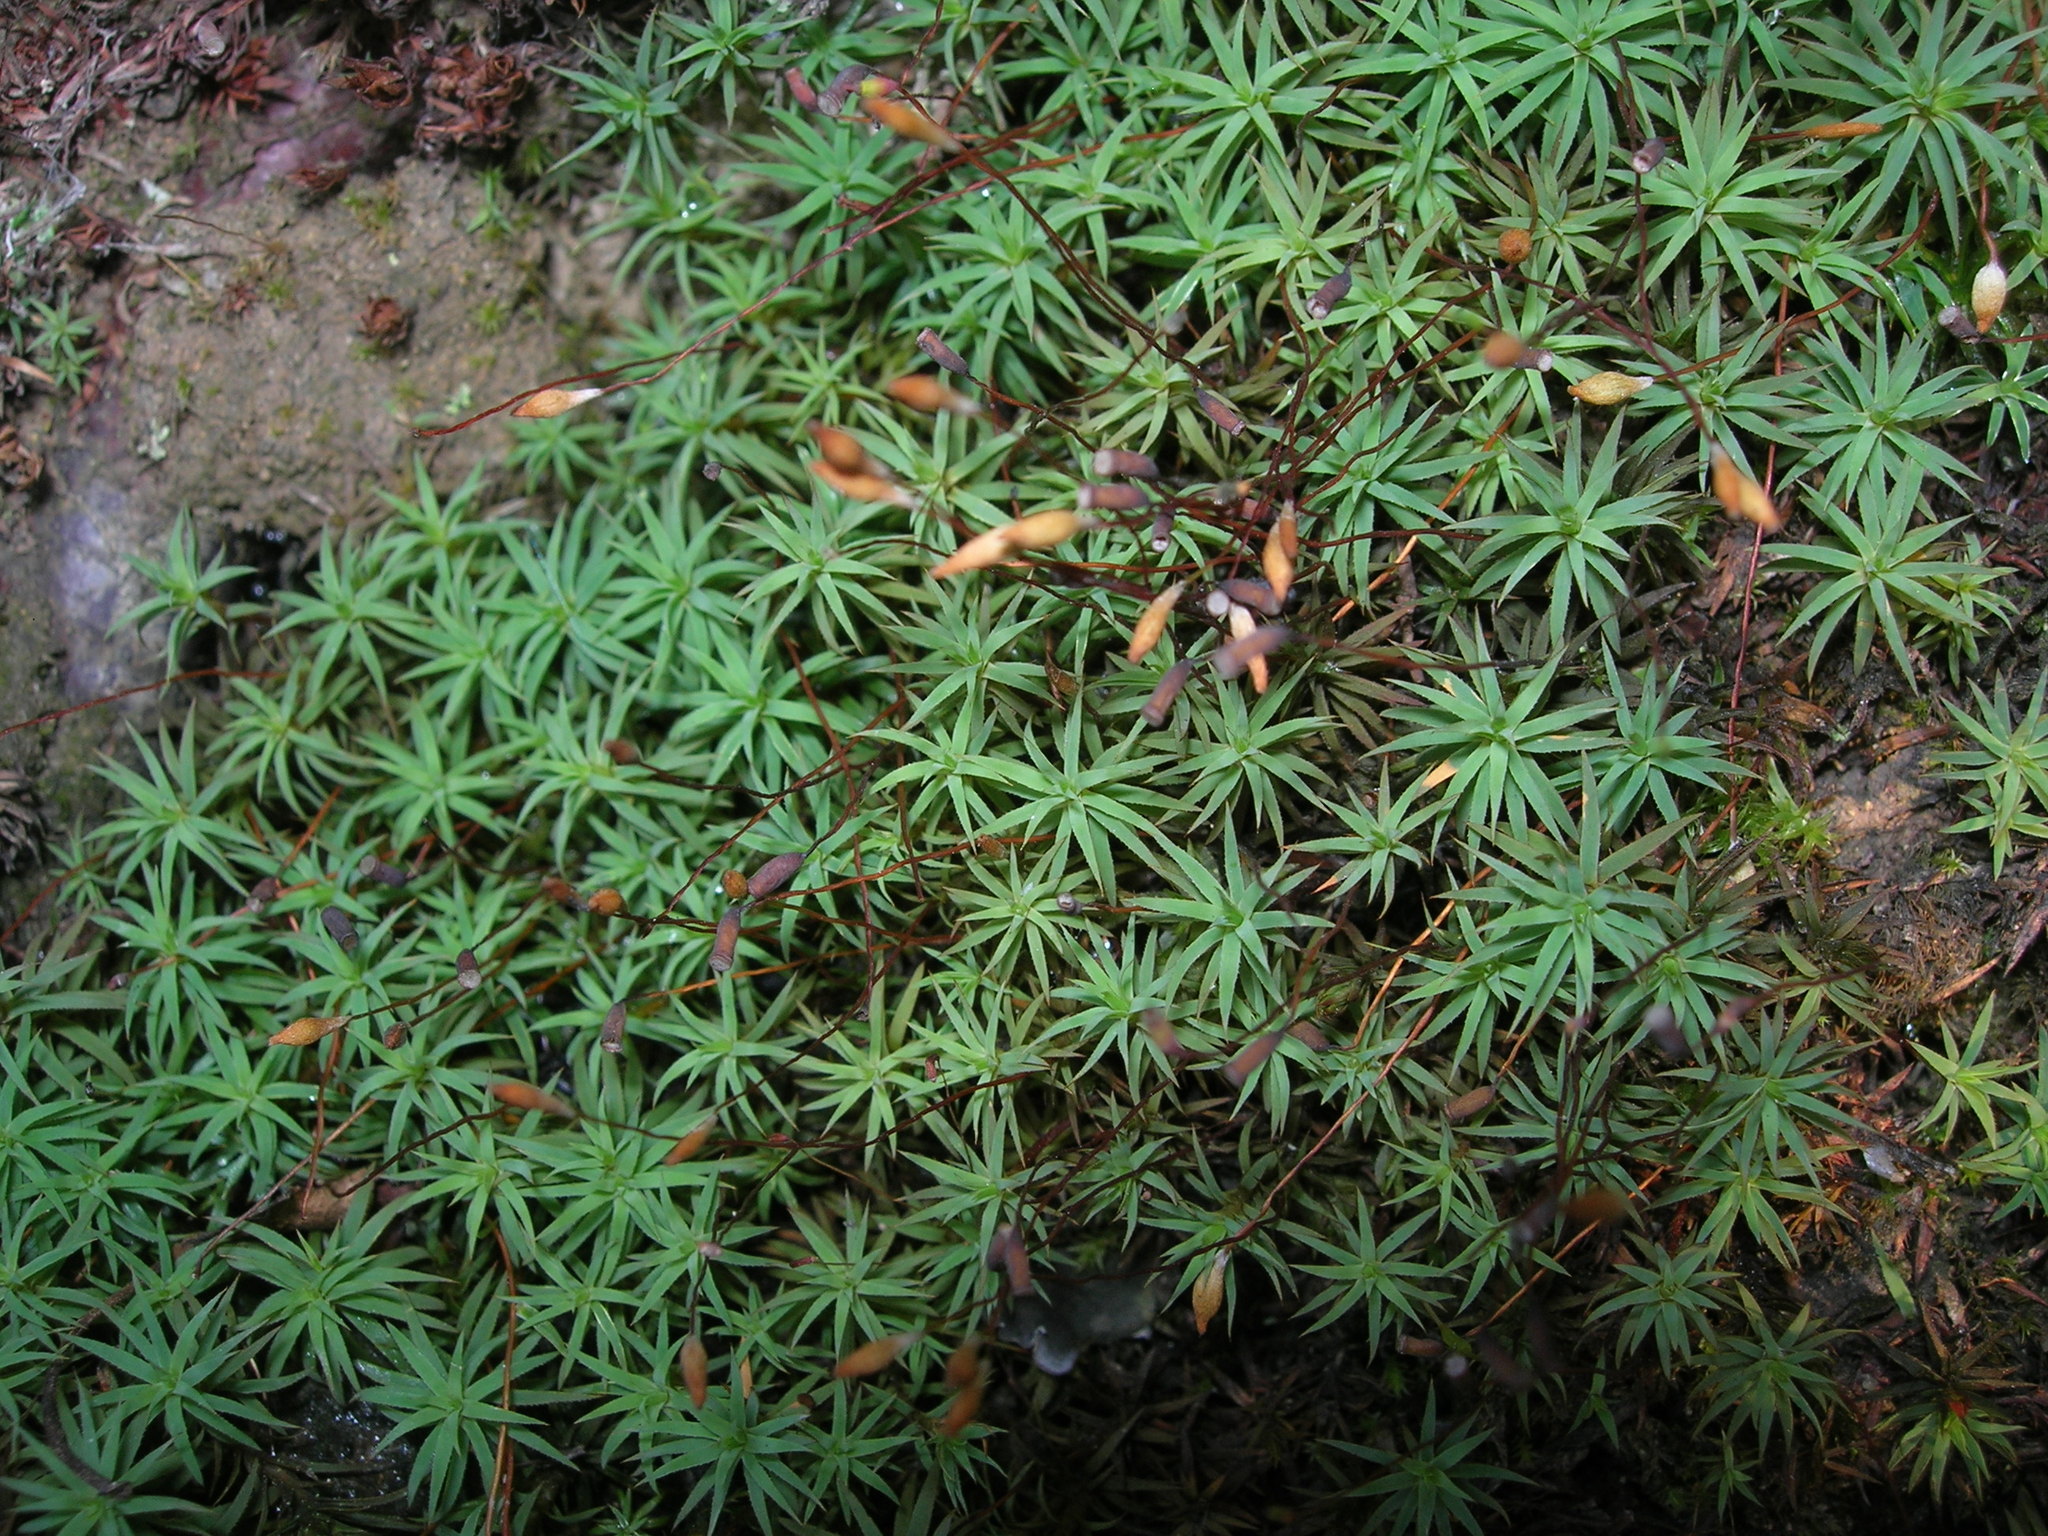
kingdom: Plantae
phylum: Bryophyta
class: Polytrichopsida
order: Polytrichales
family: Polytrichaceae
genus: Pogonatum
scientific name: Pogonatum urnigerum
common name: Urn hair moss
